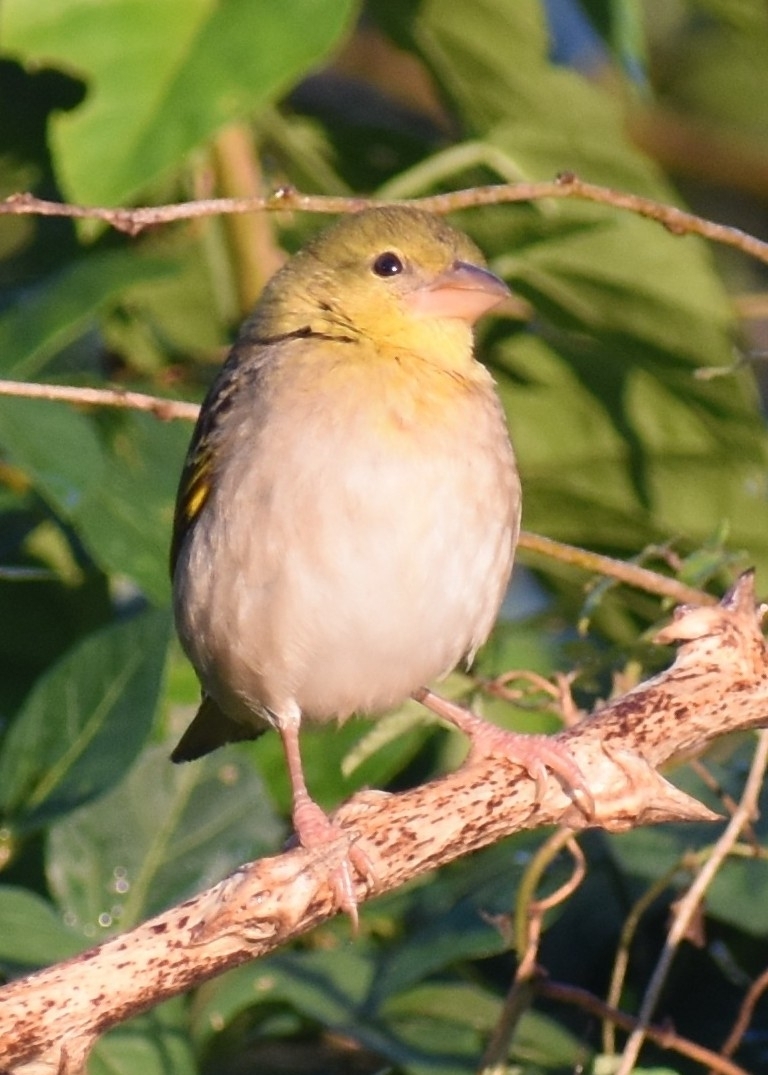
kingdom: Animalia
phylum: Chordata
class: Aves
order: Passeriformes
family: Ploceidae
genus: Ploceus
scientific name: Ploceus velatus
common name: Southern masked weaver
